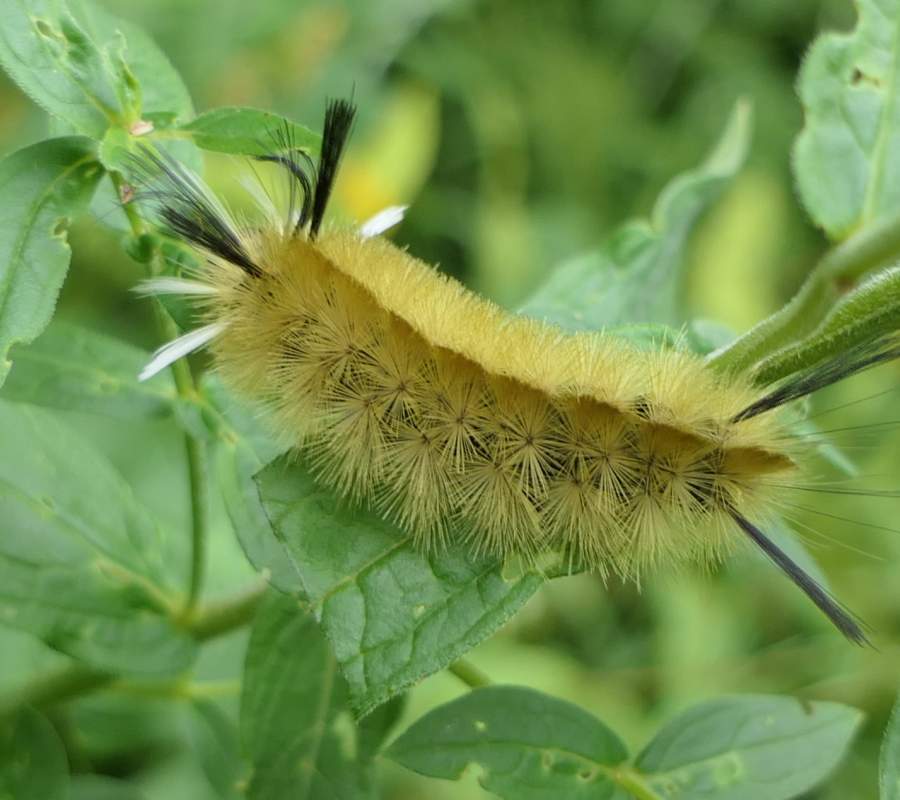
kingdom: Animalia
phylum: Arthropoda
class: Insecta
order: Lepidoptera
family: Erebidae
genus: Halysidota
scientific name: Halysidota tessellaris
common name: Banded tussock moth
